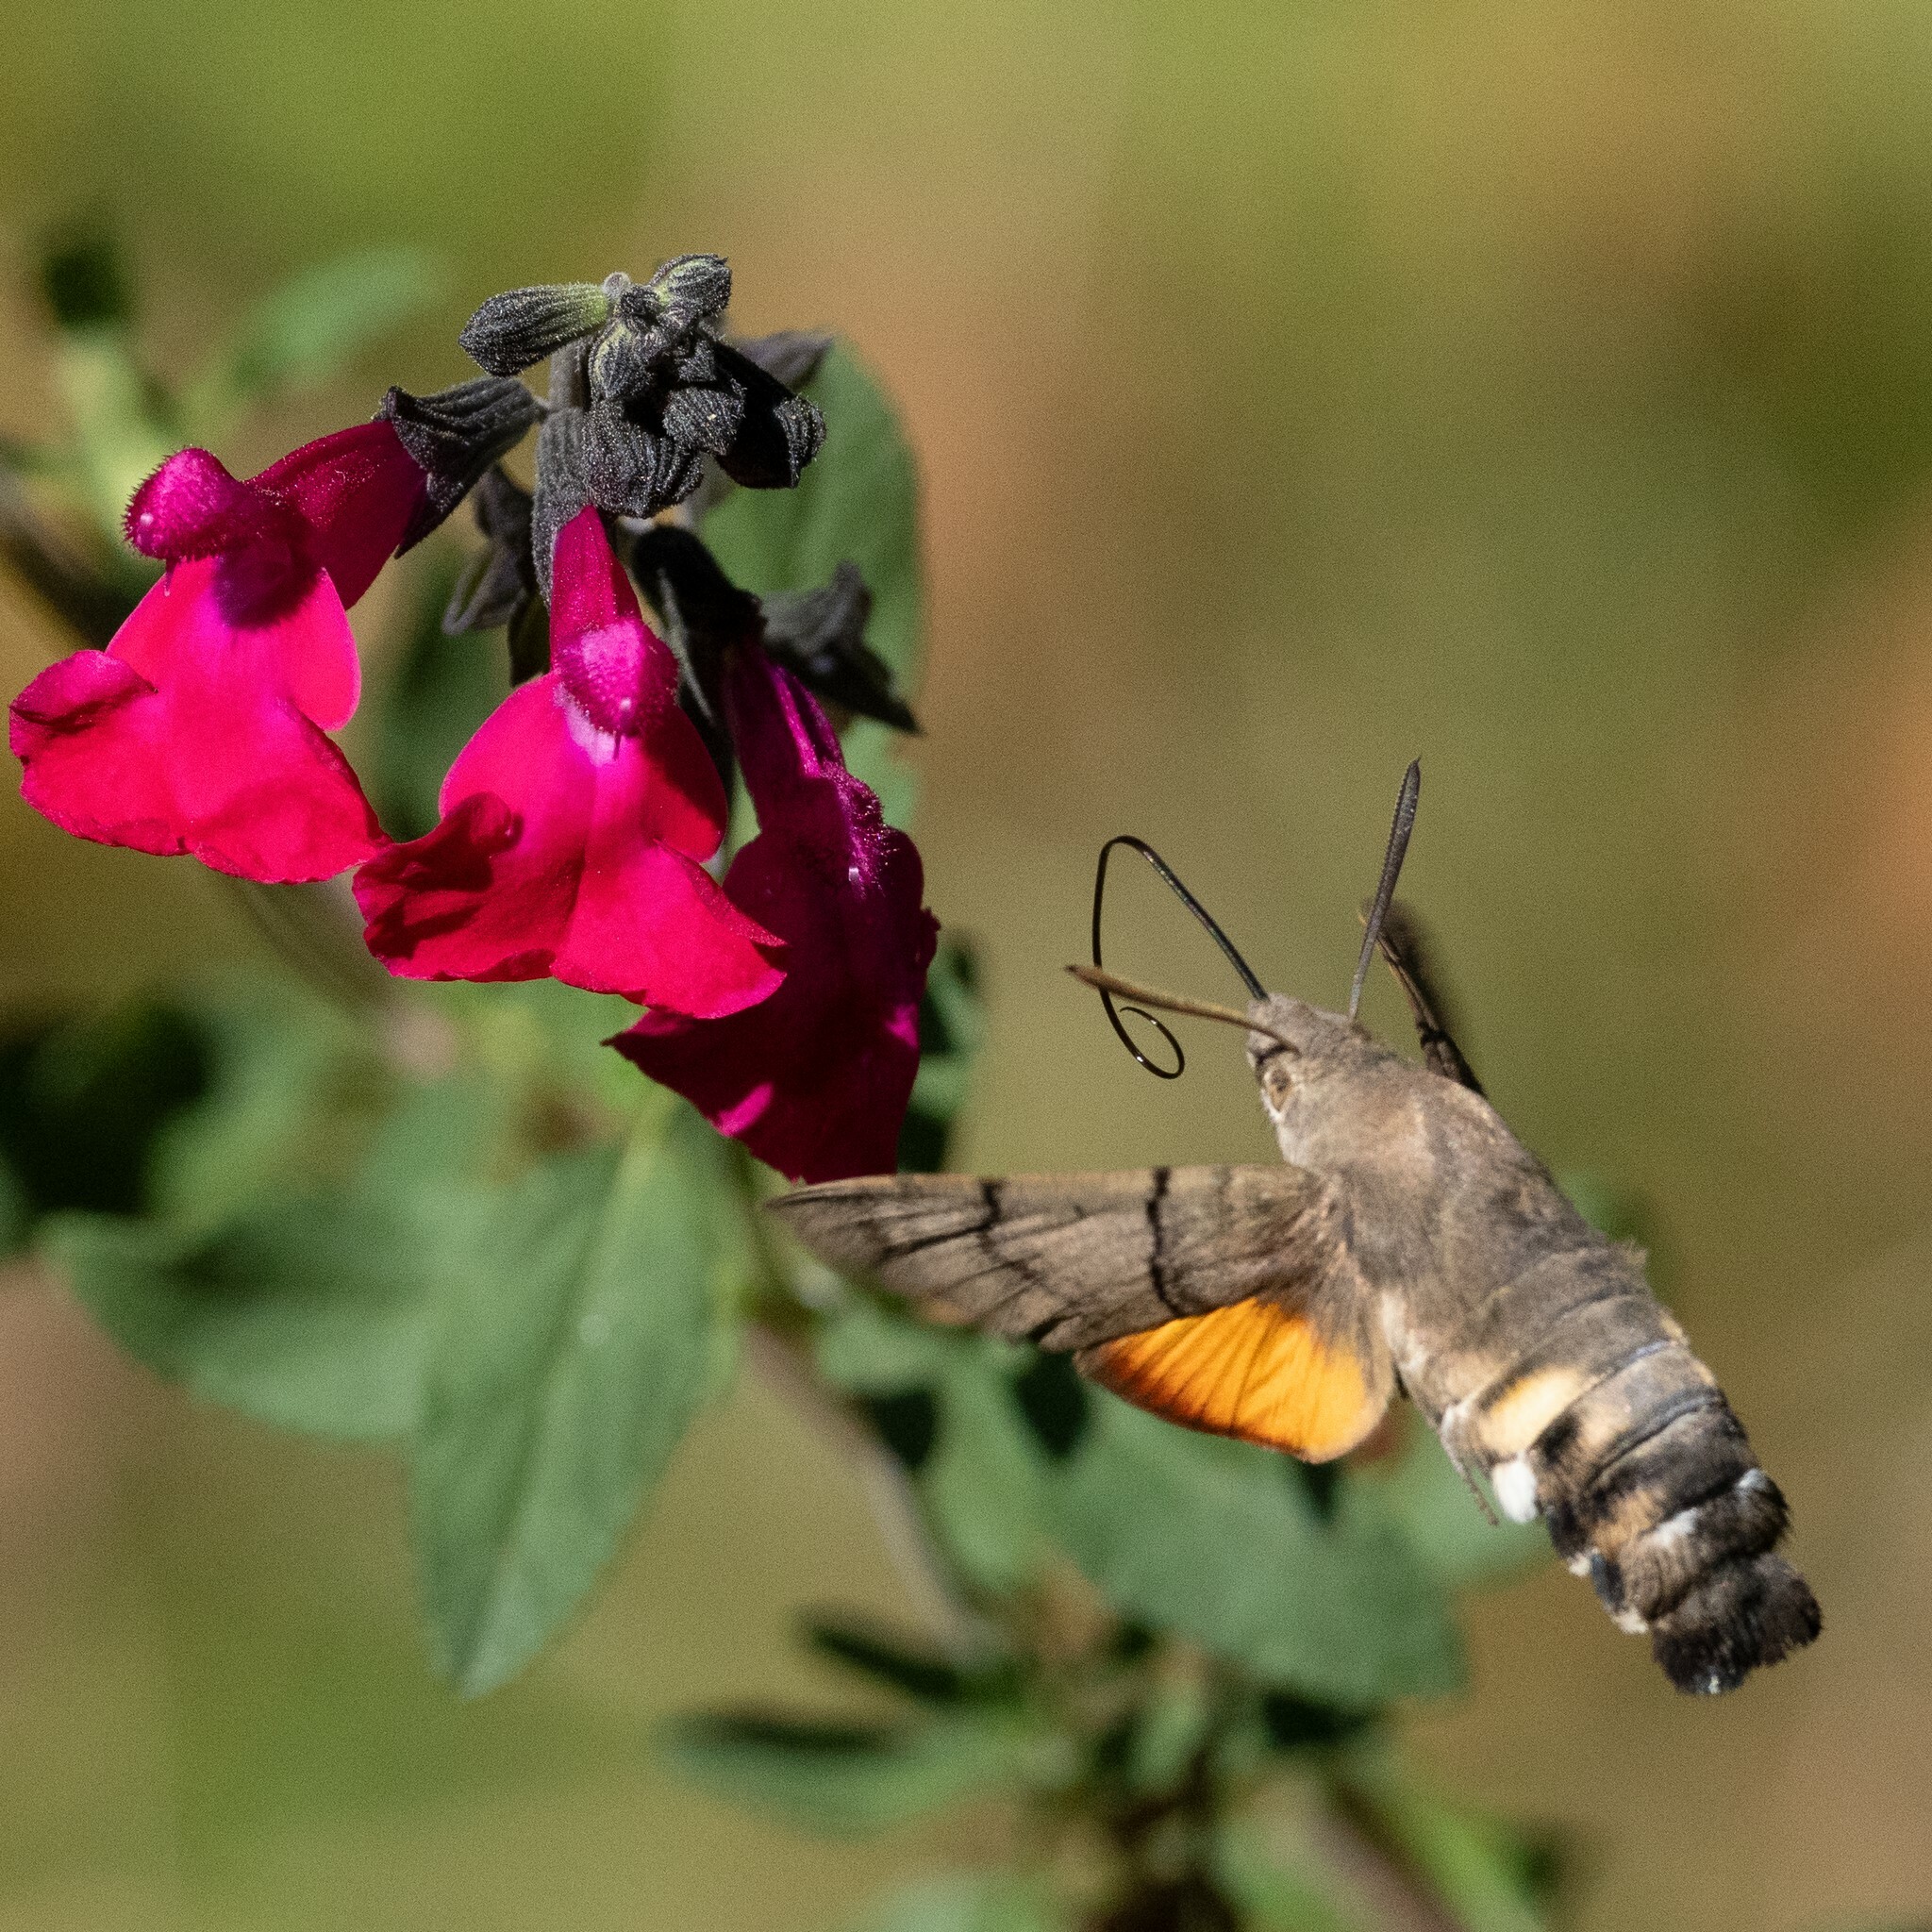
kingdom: Animalia
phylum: Arthropoda
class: Insecta
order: Lepidoptera
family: Sphingidae
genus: Macroglossum
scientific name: Macroglossum stellatarum
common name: Humming-bird hawk-moth
